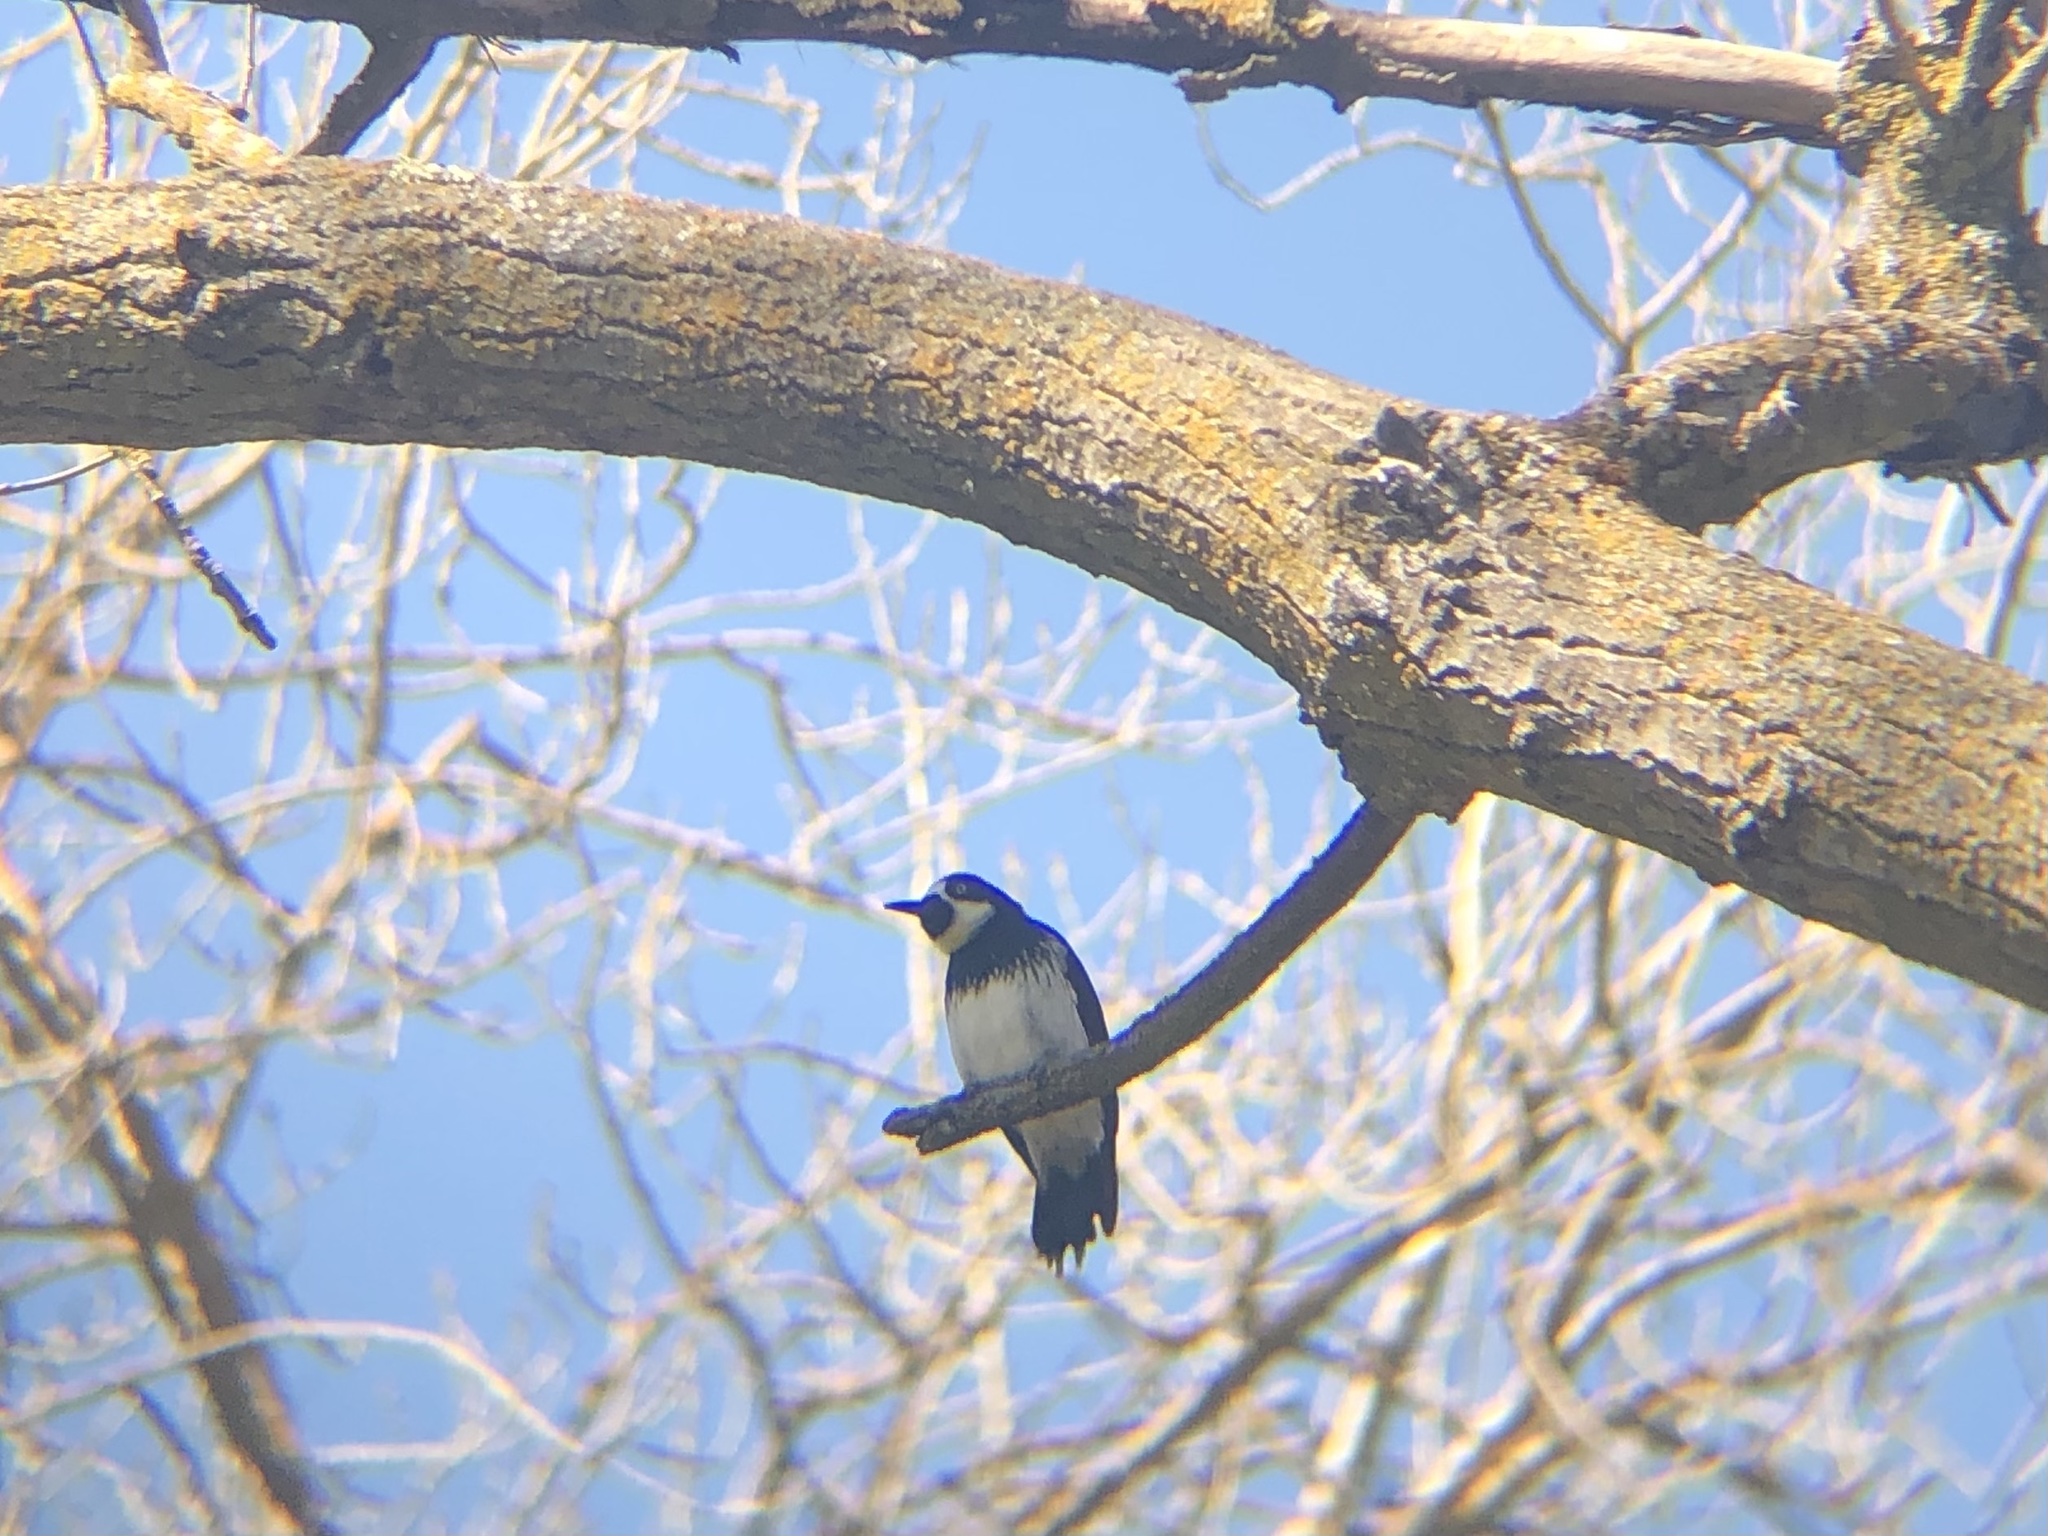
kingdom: Animalia
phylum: Chordata
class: Aves
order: Piciformes
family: Picidae
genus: Melanerpes
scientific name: Melanerpes formicivorus
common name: Acorn woodpecker
